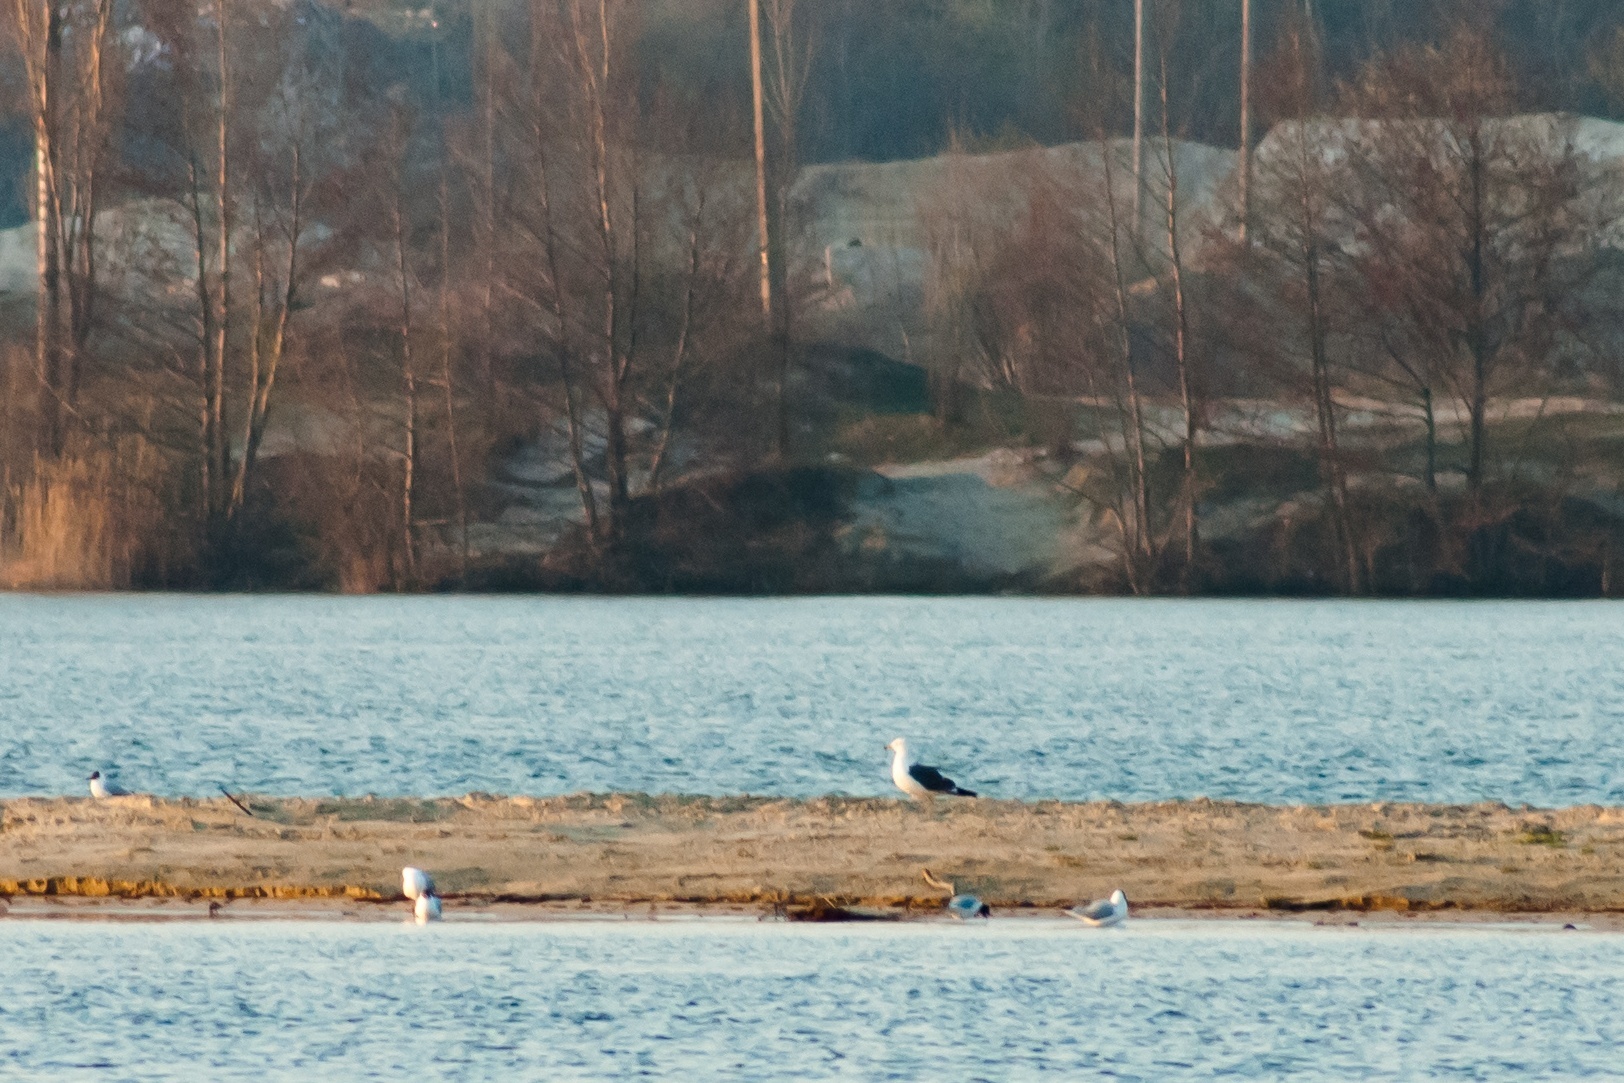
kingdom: Animalia
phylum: Chordata
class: Aves
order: Charadriiformes
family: Laridae
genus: Larus
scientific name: Larus fuscus
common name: Lesser black-backed gull
